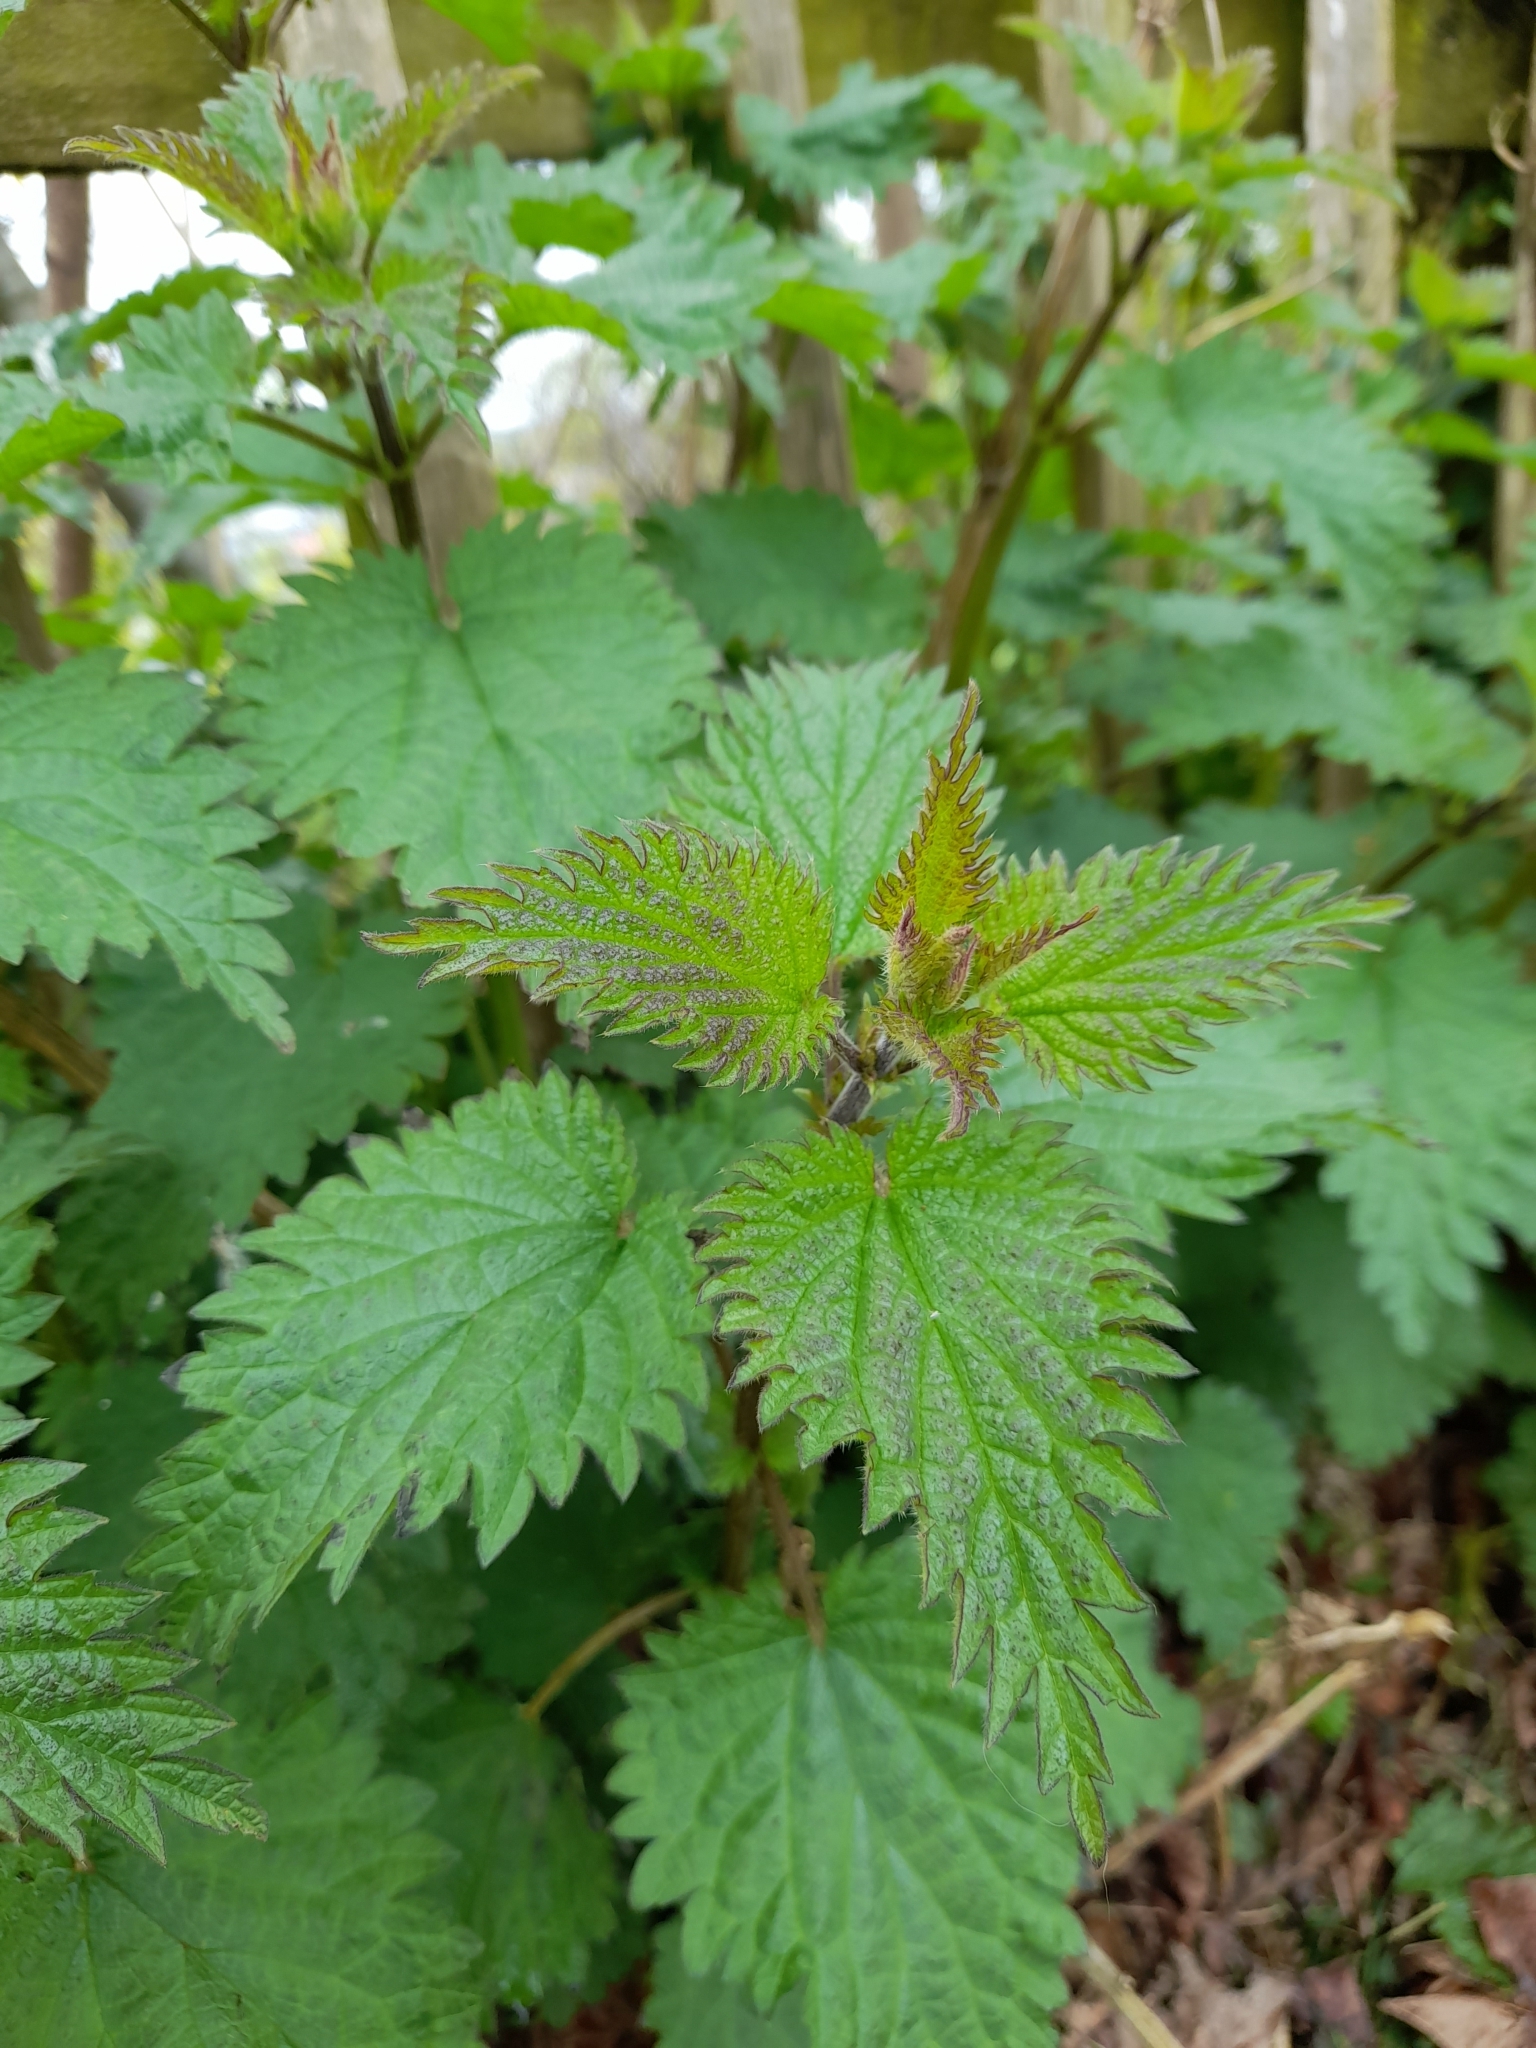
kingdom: Plantae
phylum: Tracheophyta
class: Magnoliopsida
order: Rosales
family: Urticaceae
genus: Urtica
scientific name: Urtica dioica
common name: Common nettle
